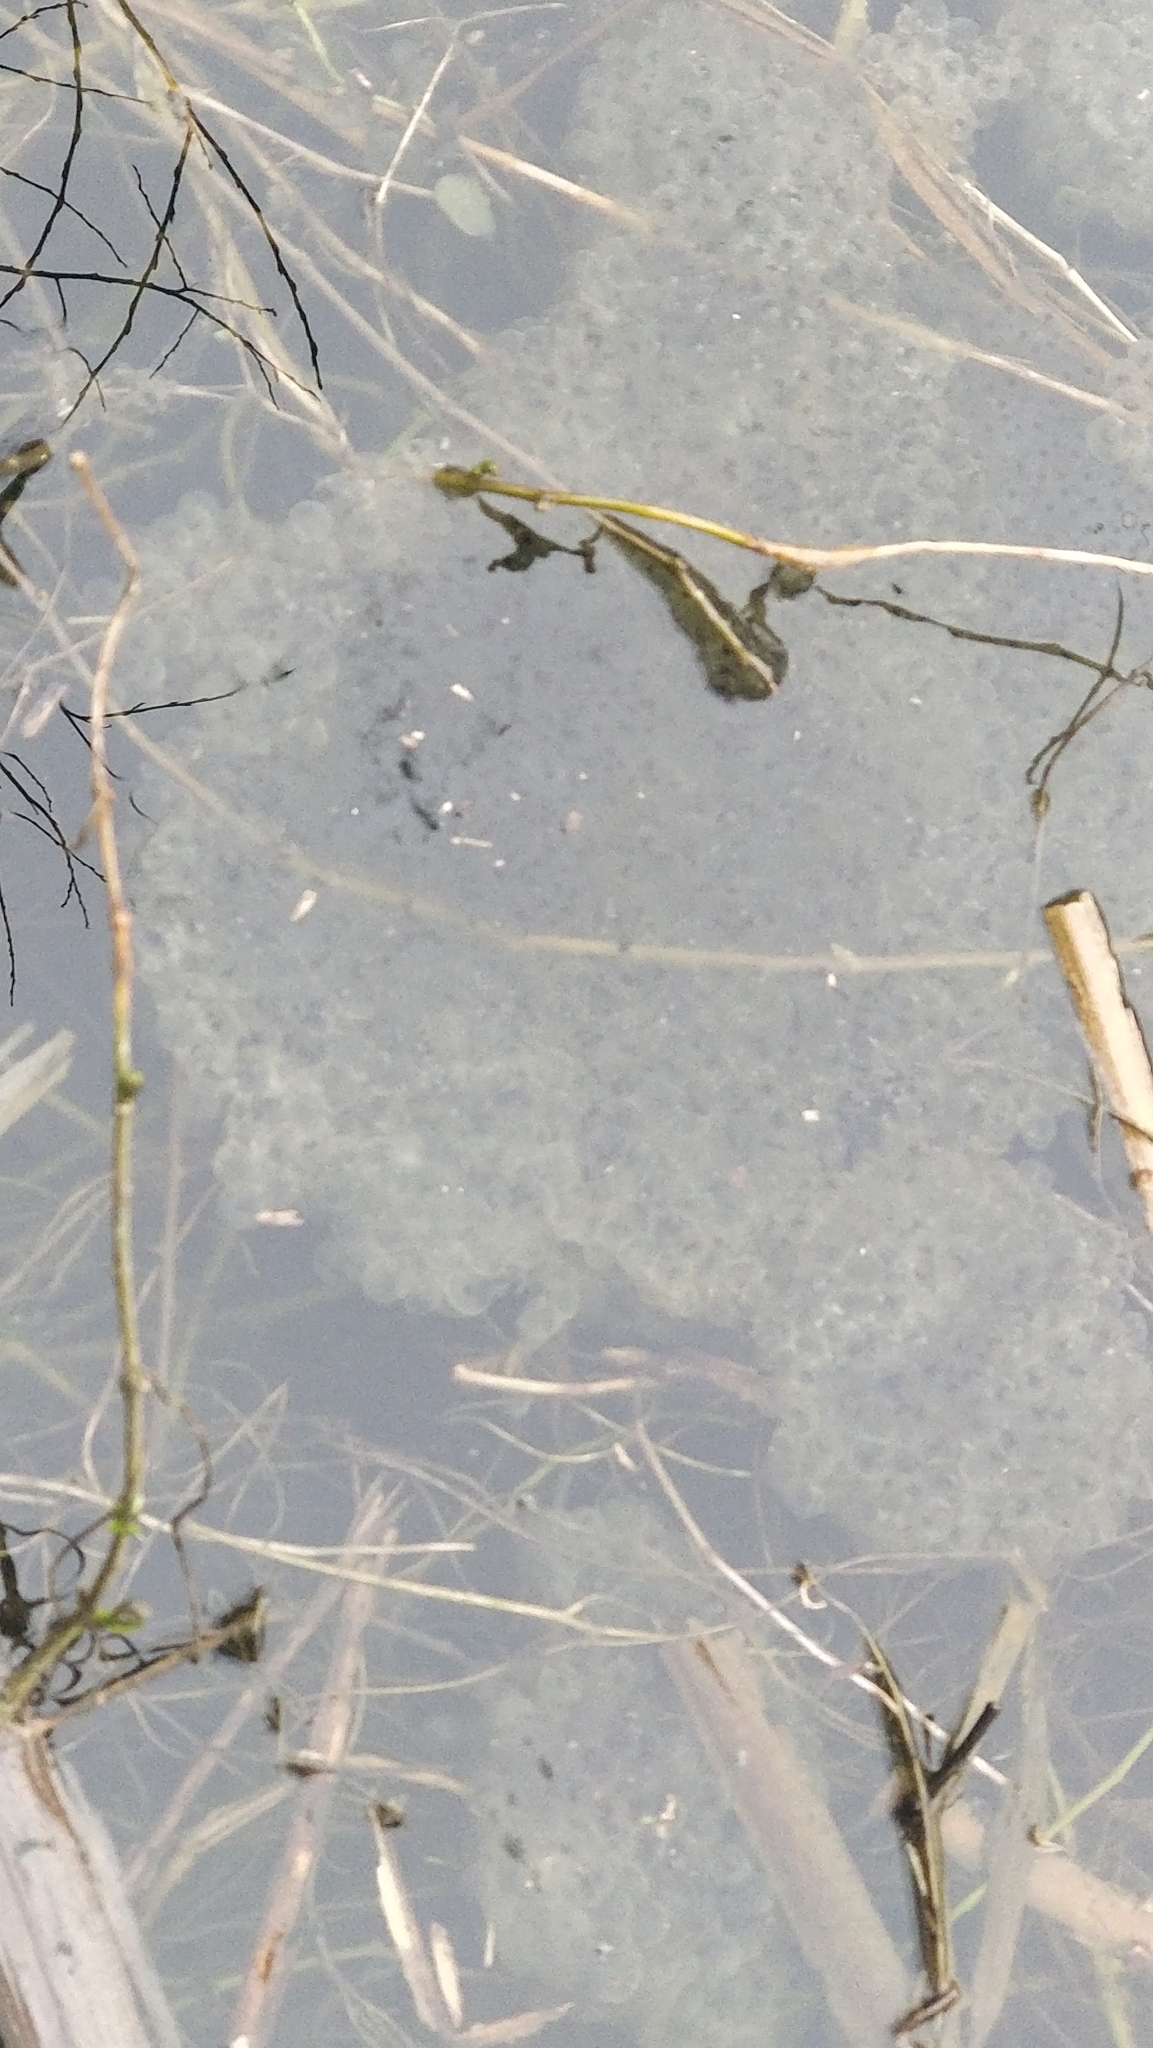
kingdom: Animalia
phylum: Chordata
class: Amphibia
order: Anura
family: Ranidae
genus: Rana
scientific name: Rana temporaria
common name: Common frog
